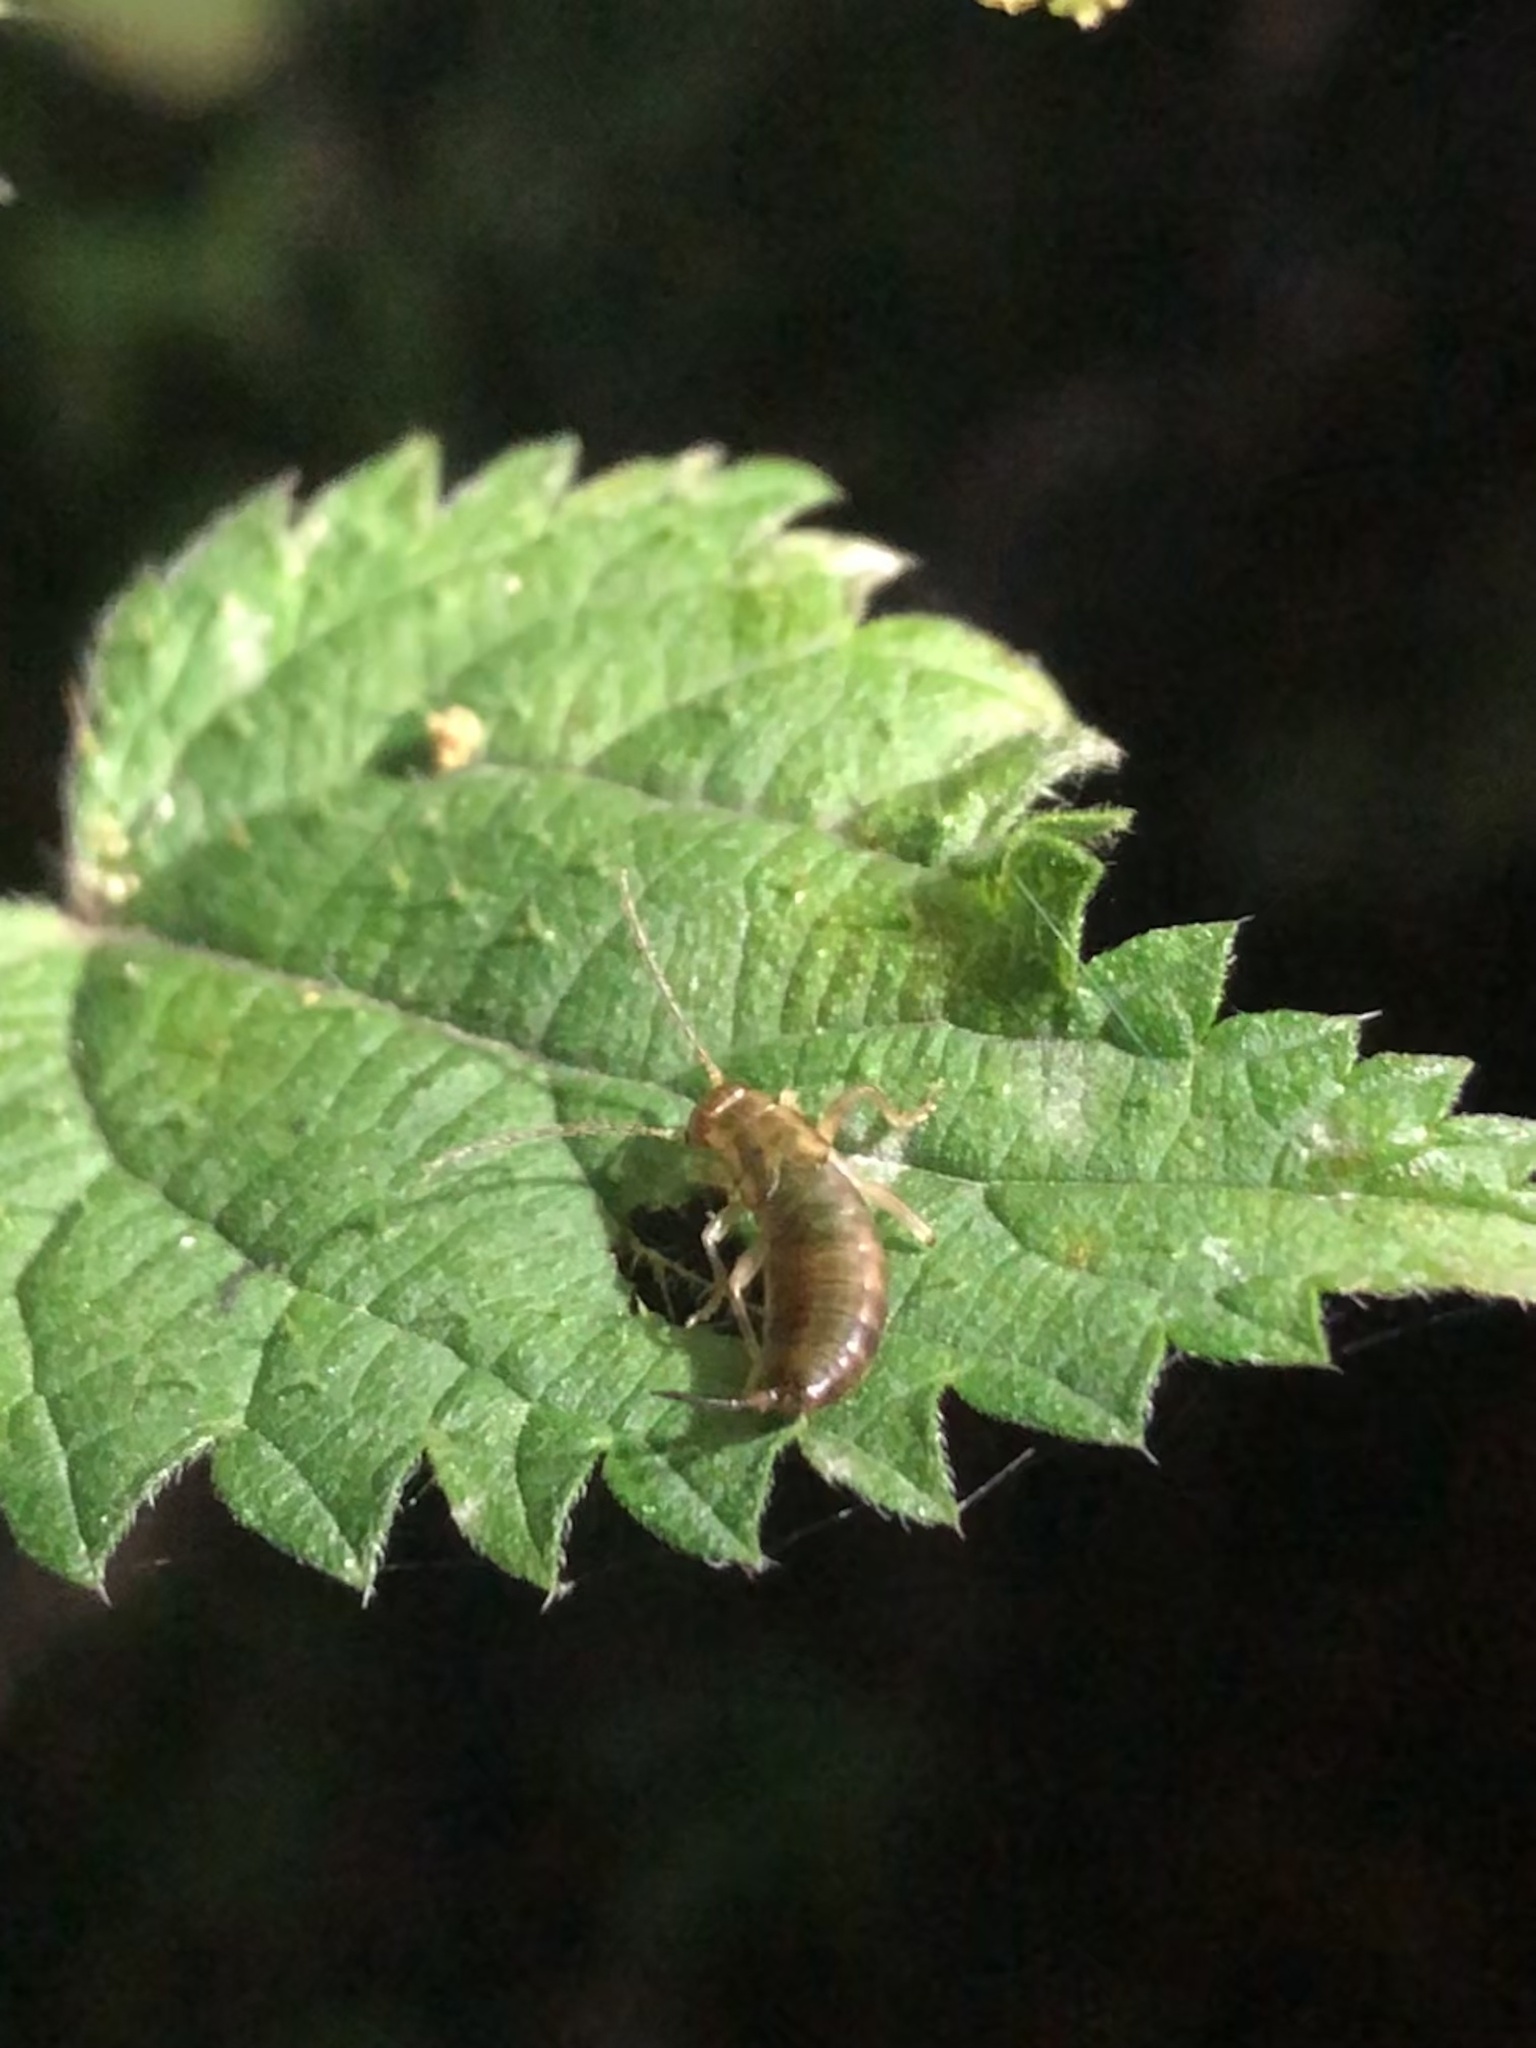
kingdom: Animalia
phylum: Arthropoda
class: Insecta
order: Dermaptera
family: Forficulidae
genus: Forficula
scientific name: Forficula
